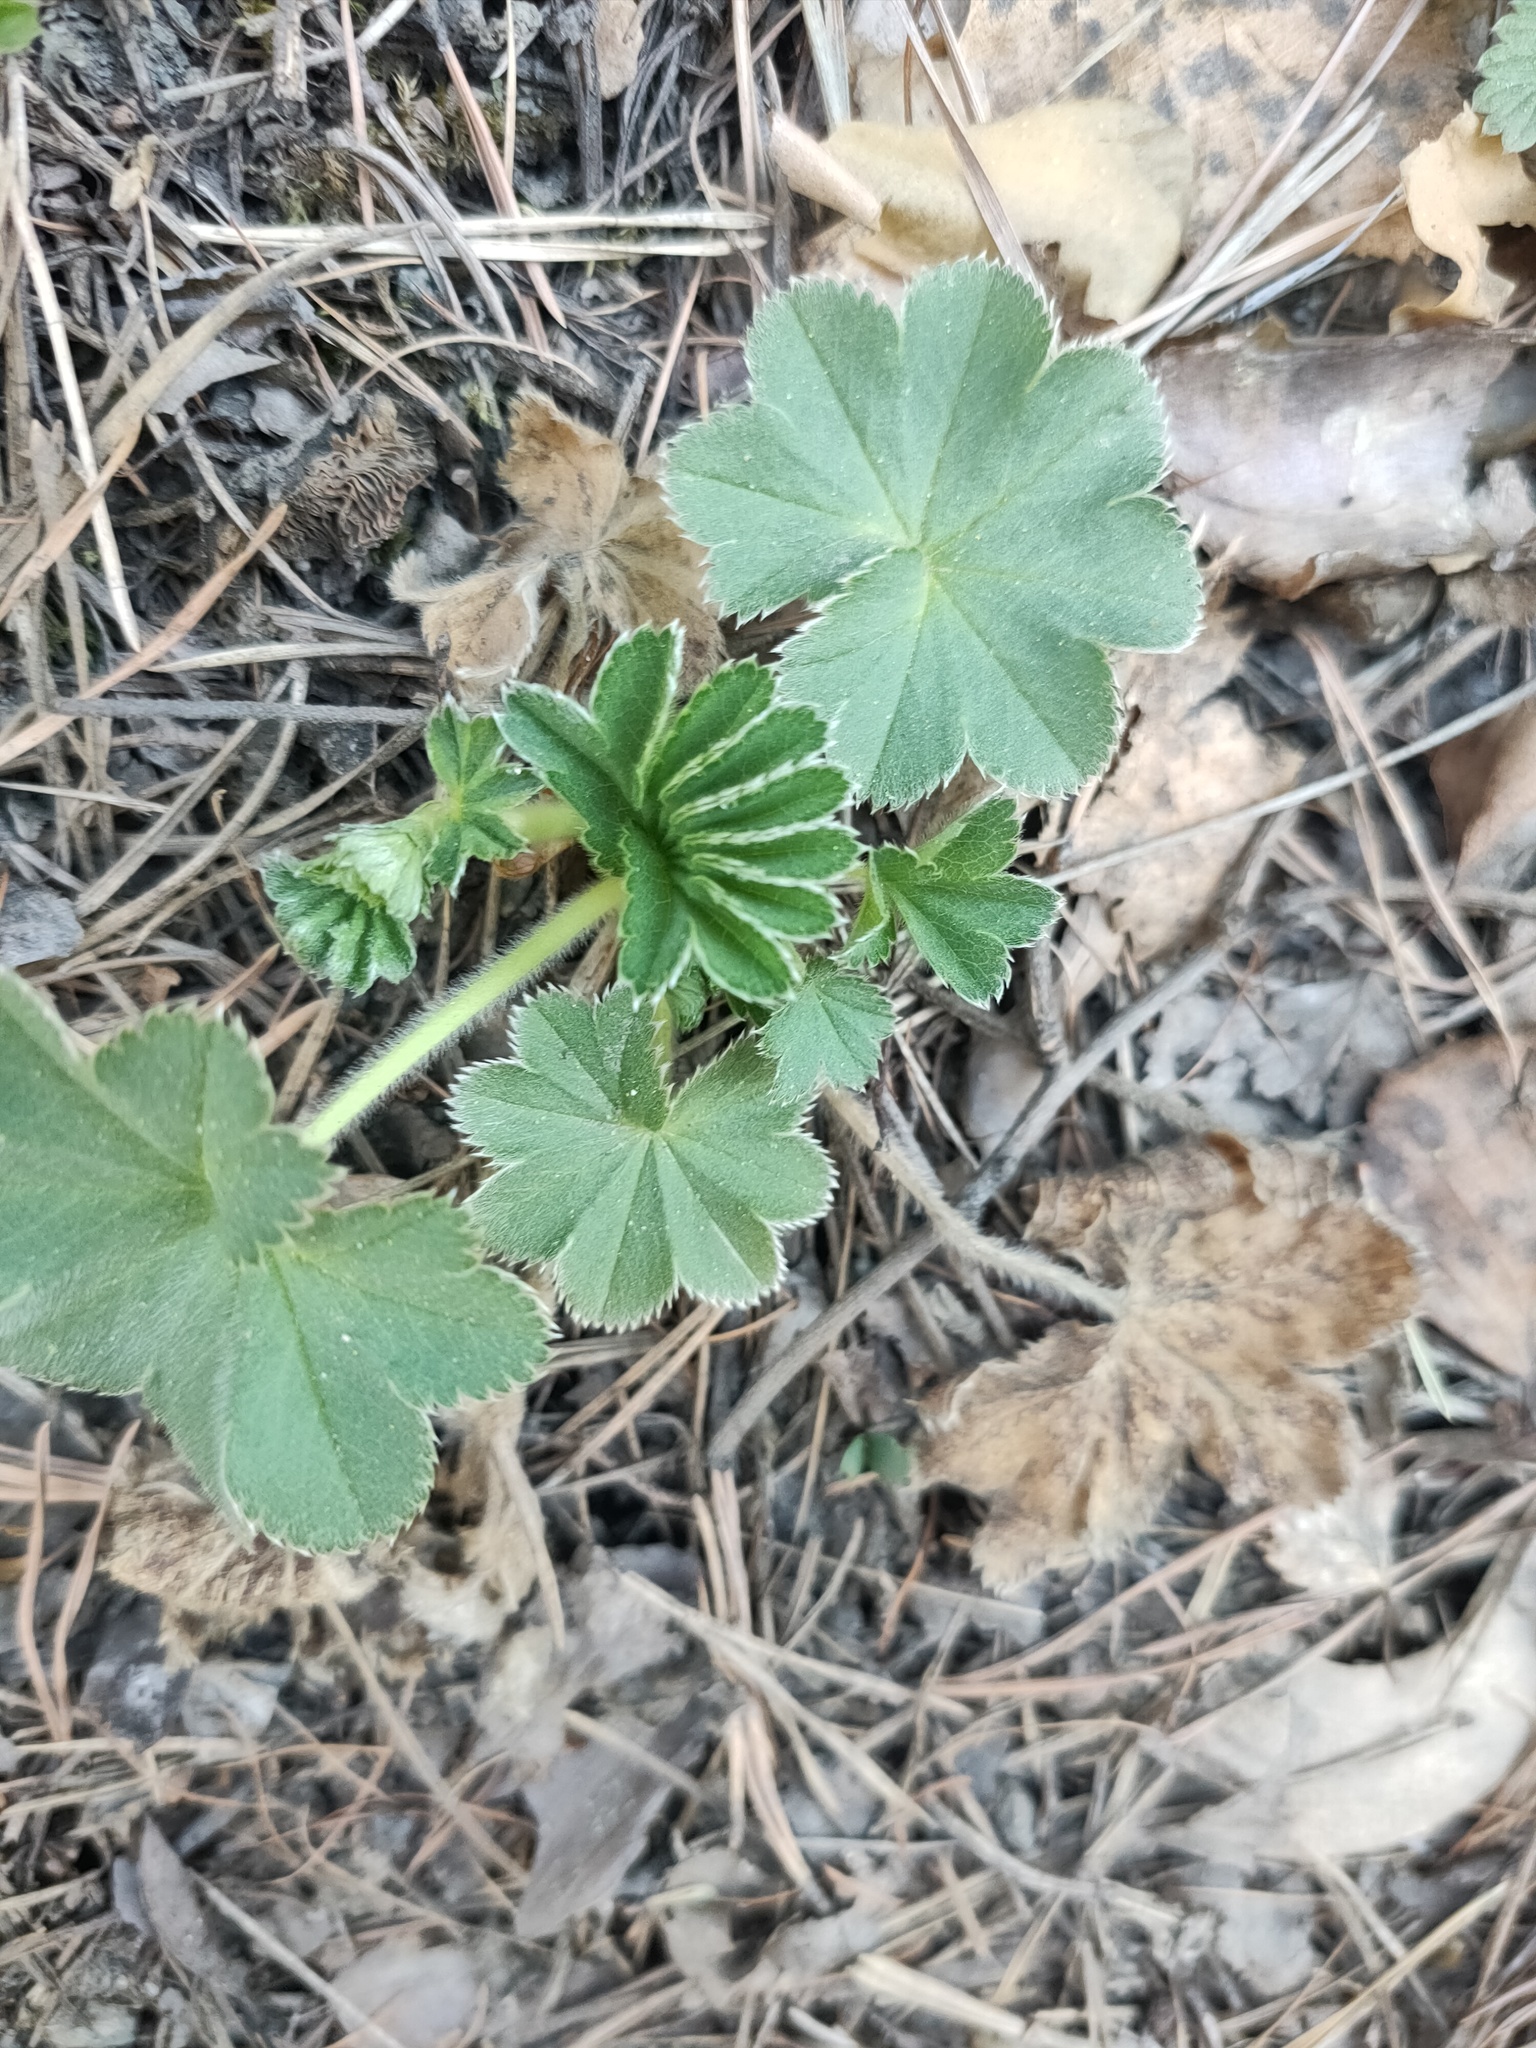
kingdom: Plantae
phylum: Tracheophyta
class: Magnoliopsida
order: Rosales
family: Rosaceae
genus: Alchemilla
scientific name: Alchemilla
